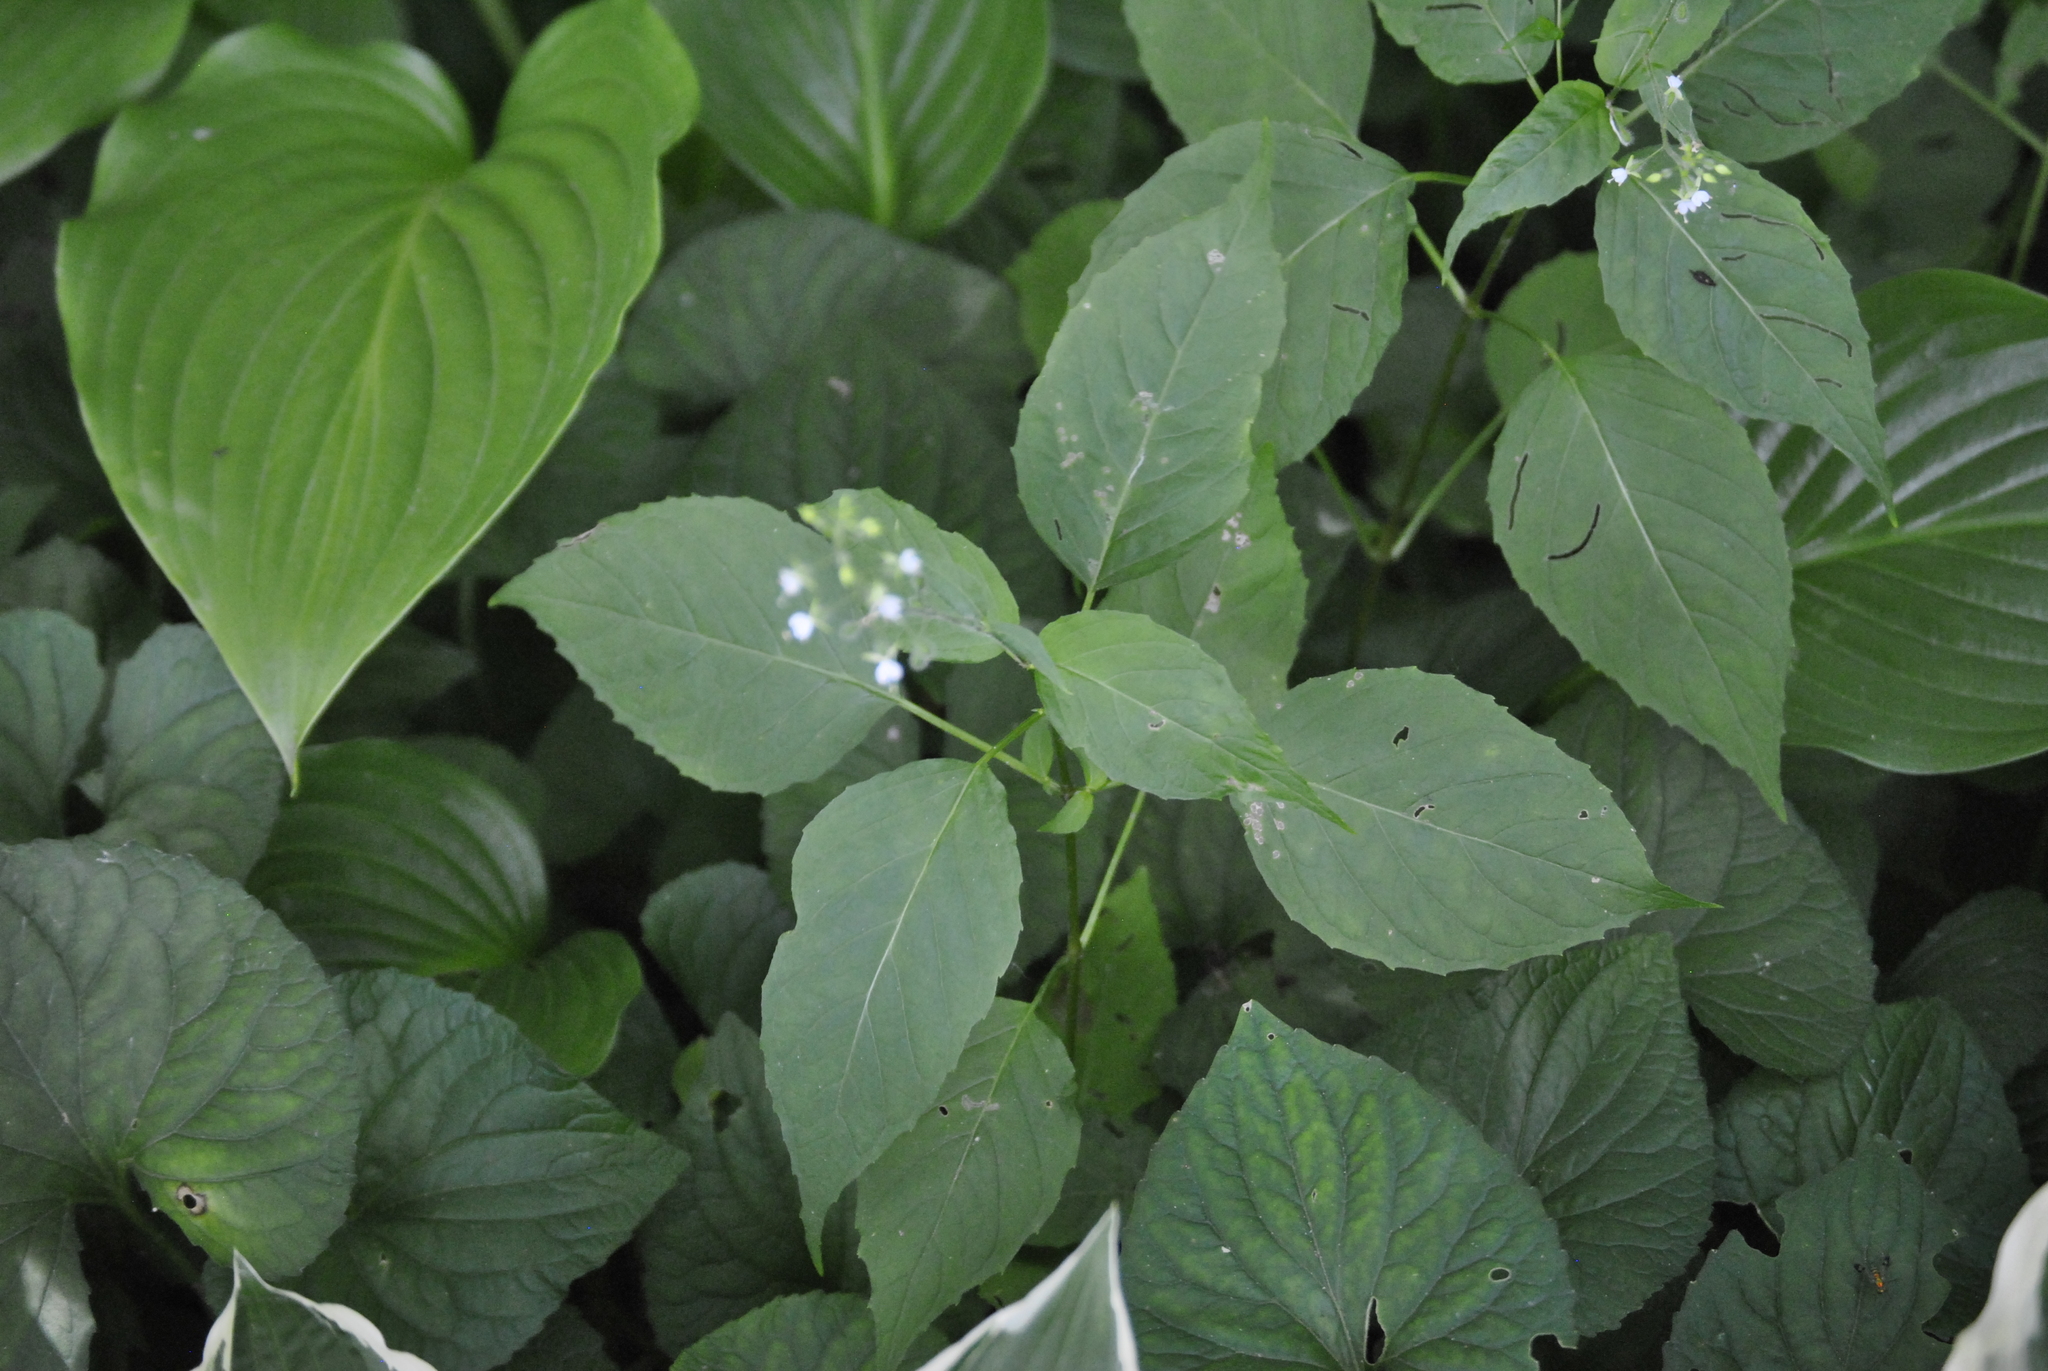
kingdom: Plantae
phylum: Tracheophyta
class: Magnoliopsida
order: Myrtales
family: Onagraceae
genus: Circaea
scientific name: Circaea canadensis
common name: Broad-leaved enchanter's nightshade
